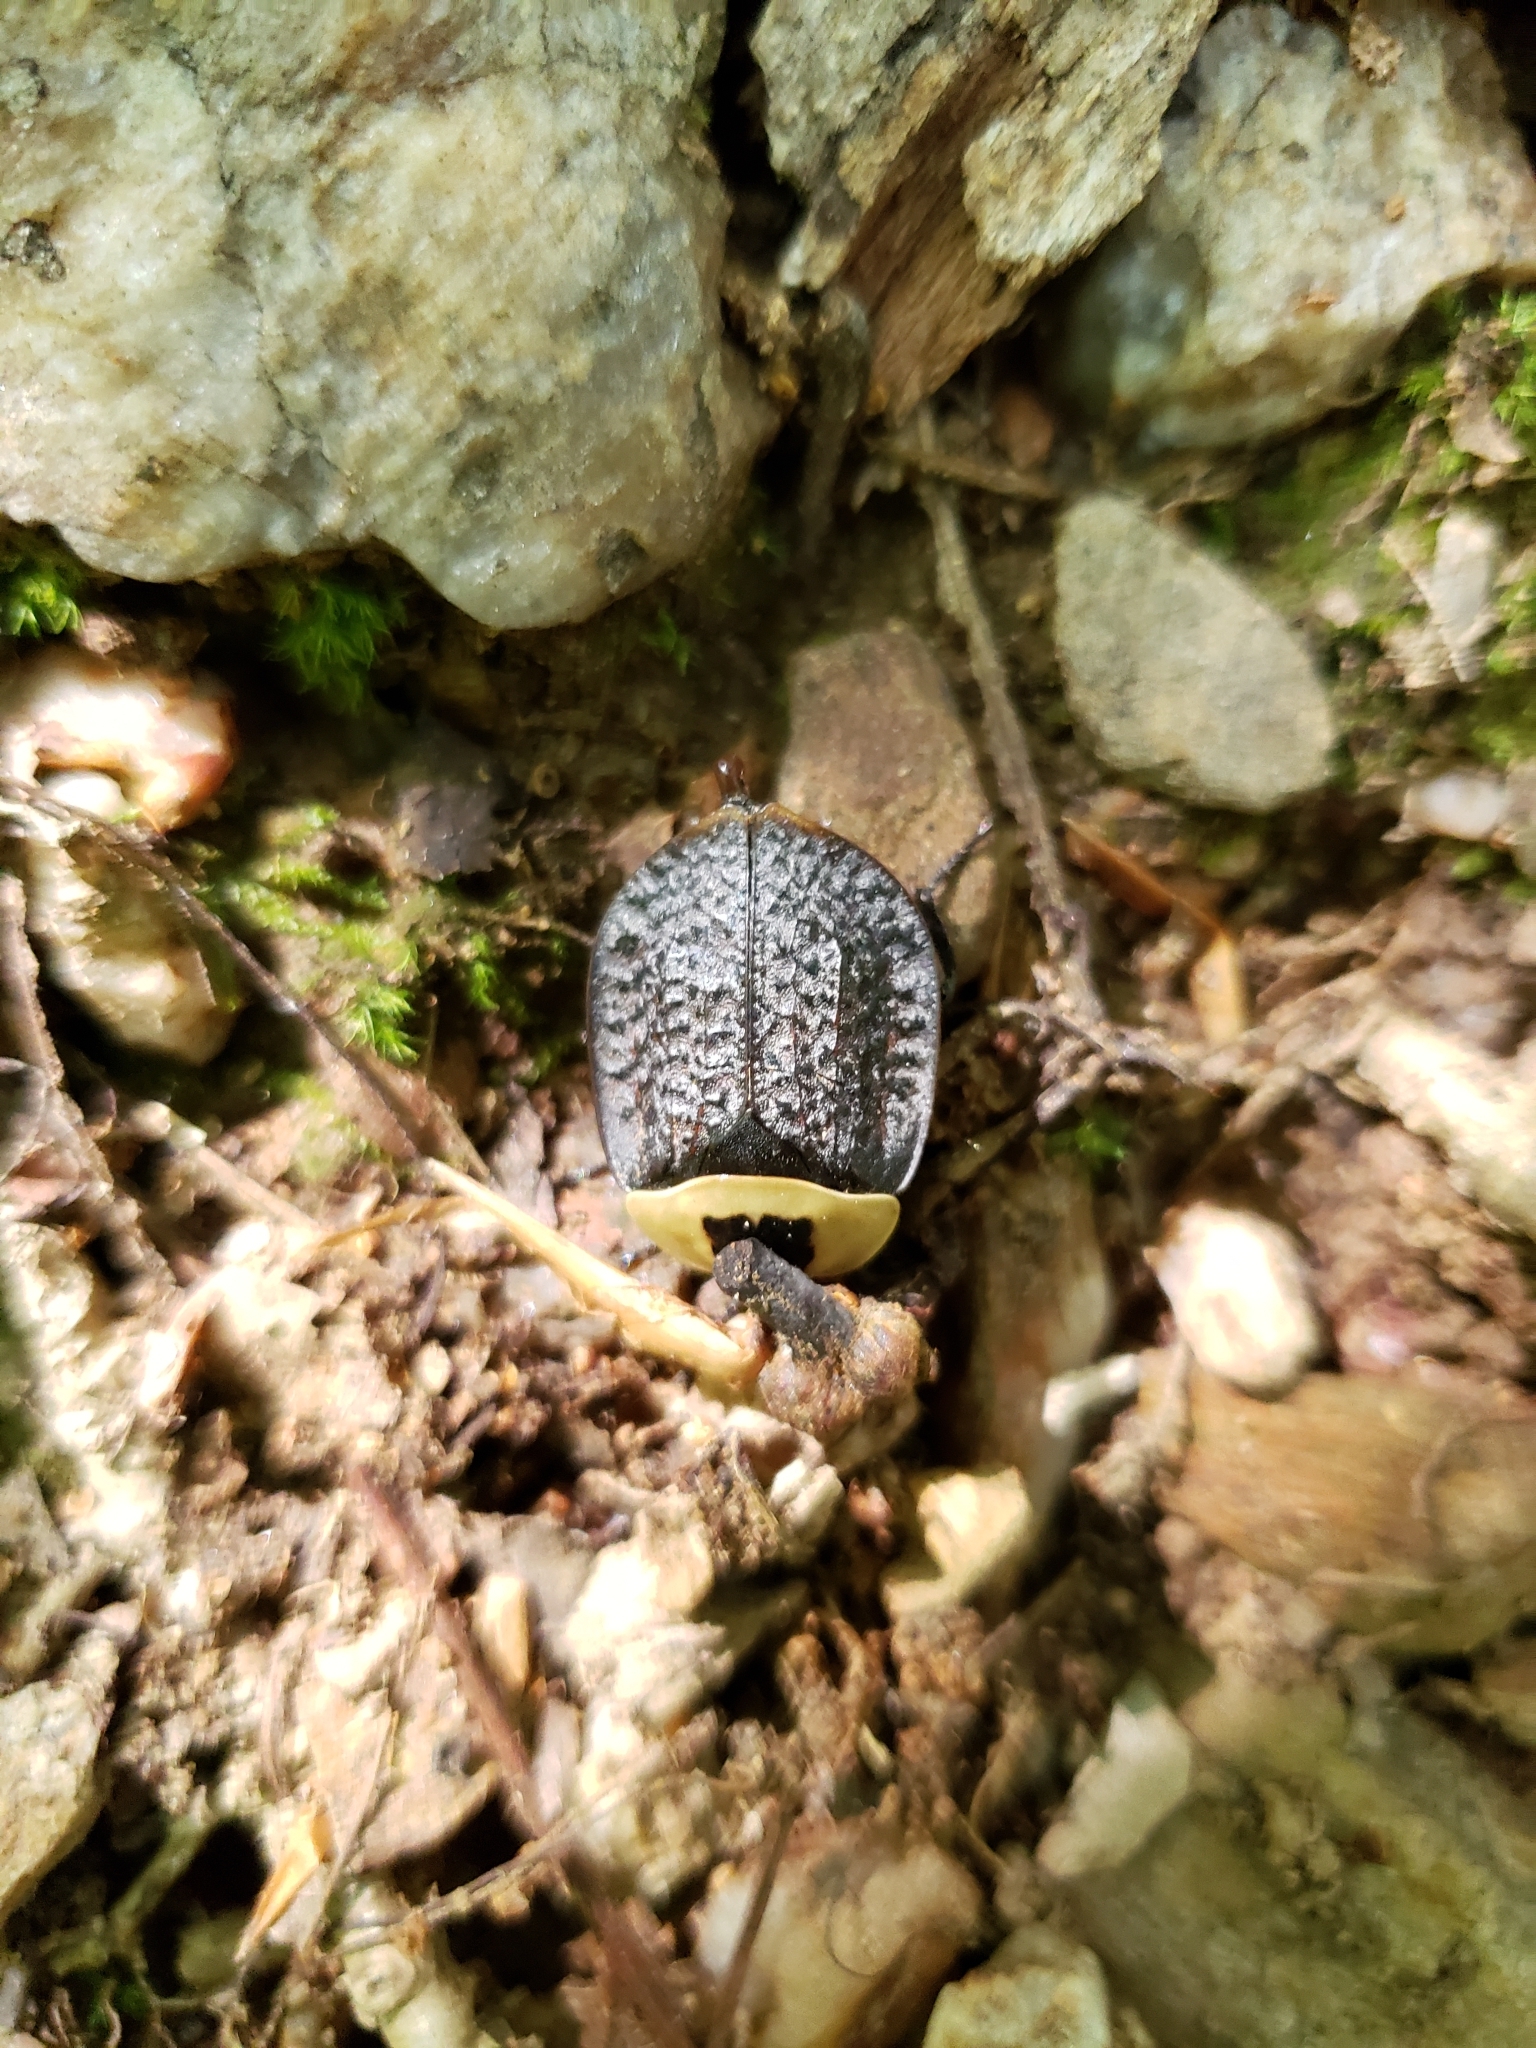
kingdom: Animalia
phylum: Arthropoda
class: Insecta
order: Coleoptera
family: Staphylinidae
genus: Necrophila
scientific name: Necrophila americana
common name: American carrion beetle
